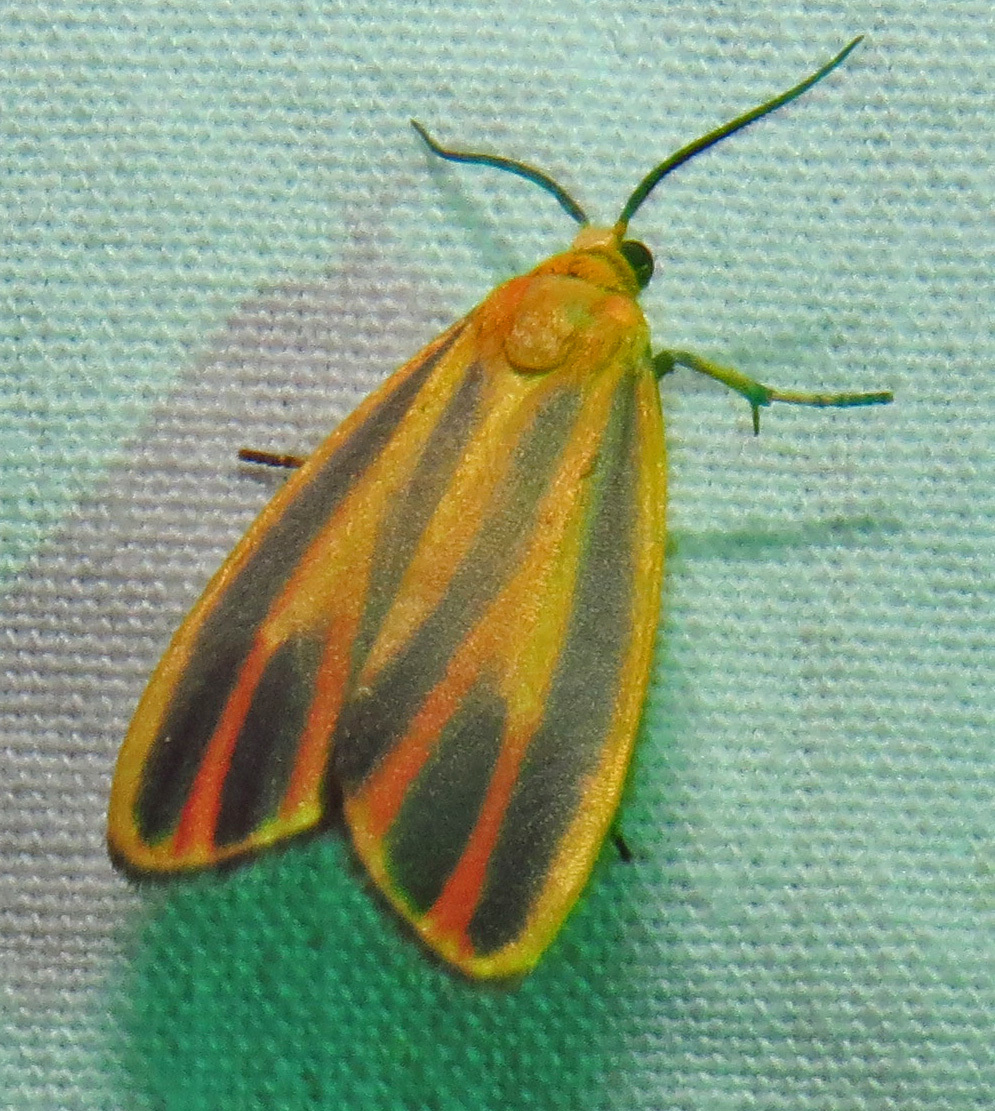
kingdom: Animalia
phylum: Arthropoda
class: Insecta
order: Lepidoptera
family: Erebidae
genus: Hypoprepia
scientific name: Hypoprepia fucosa
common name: Painted lichen moth
